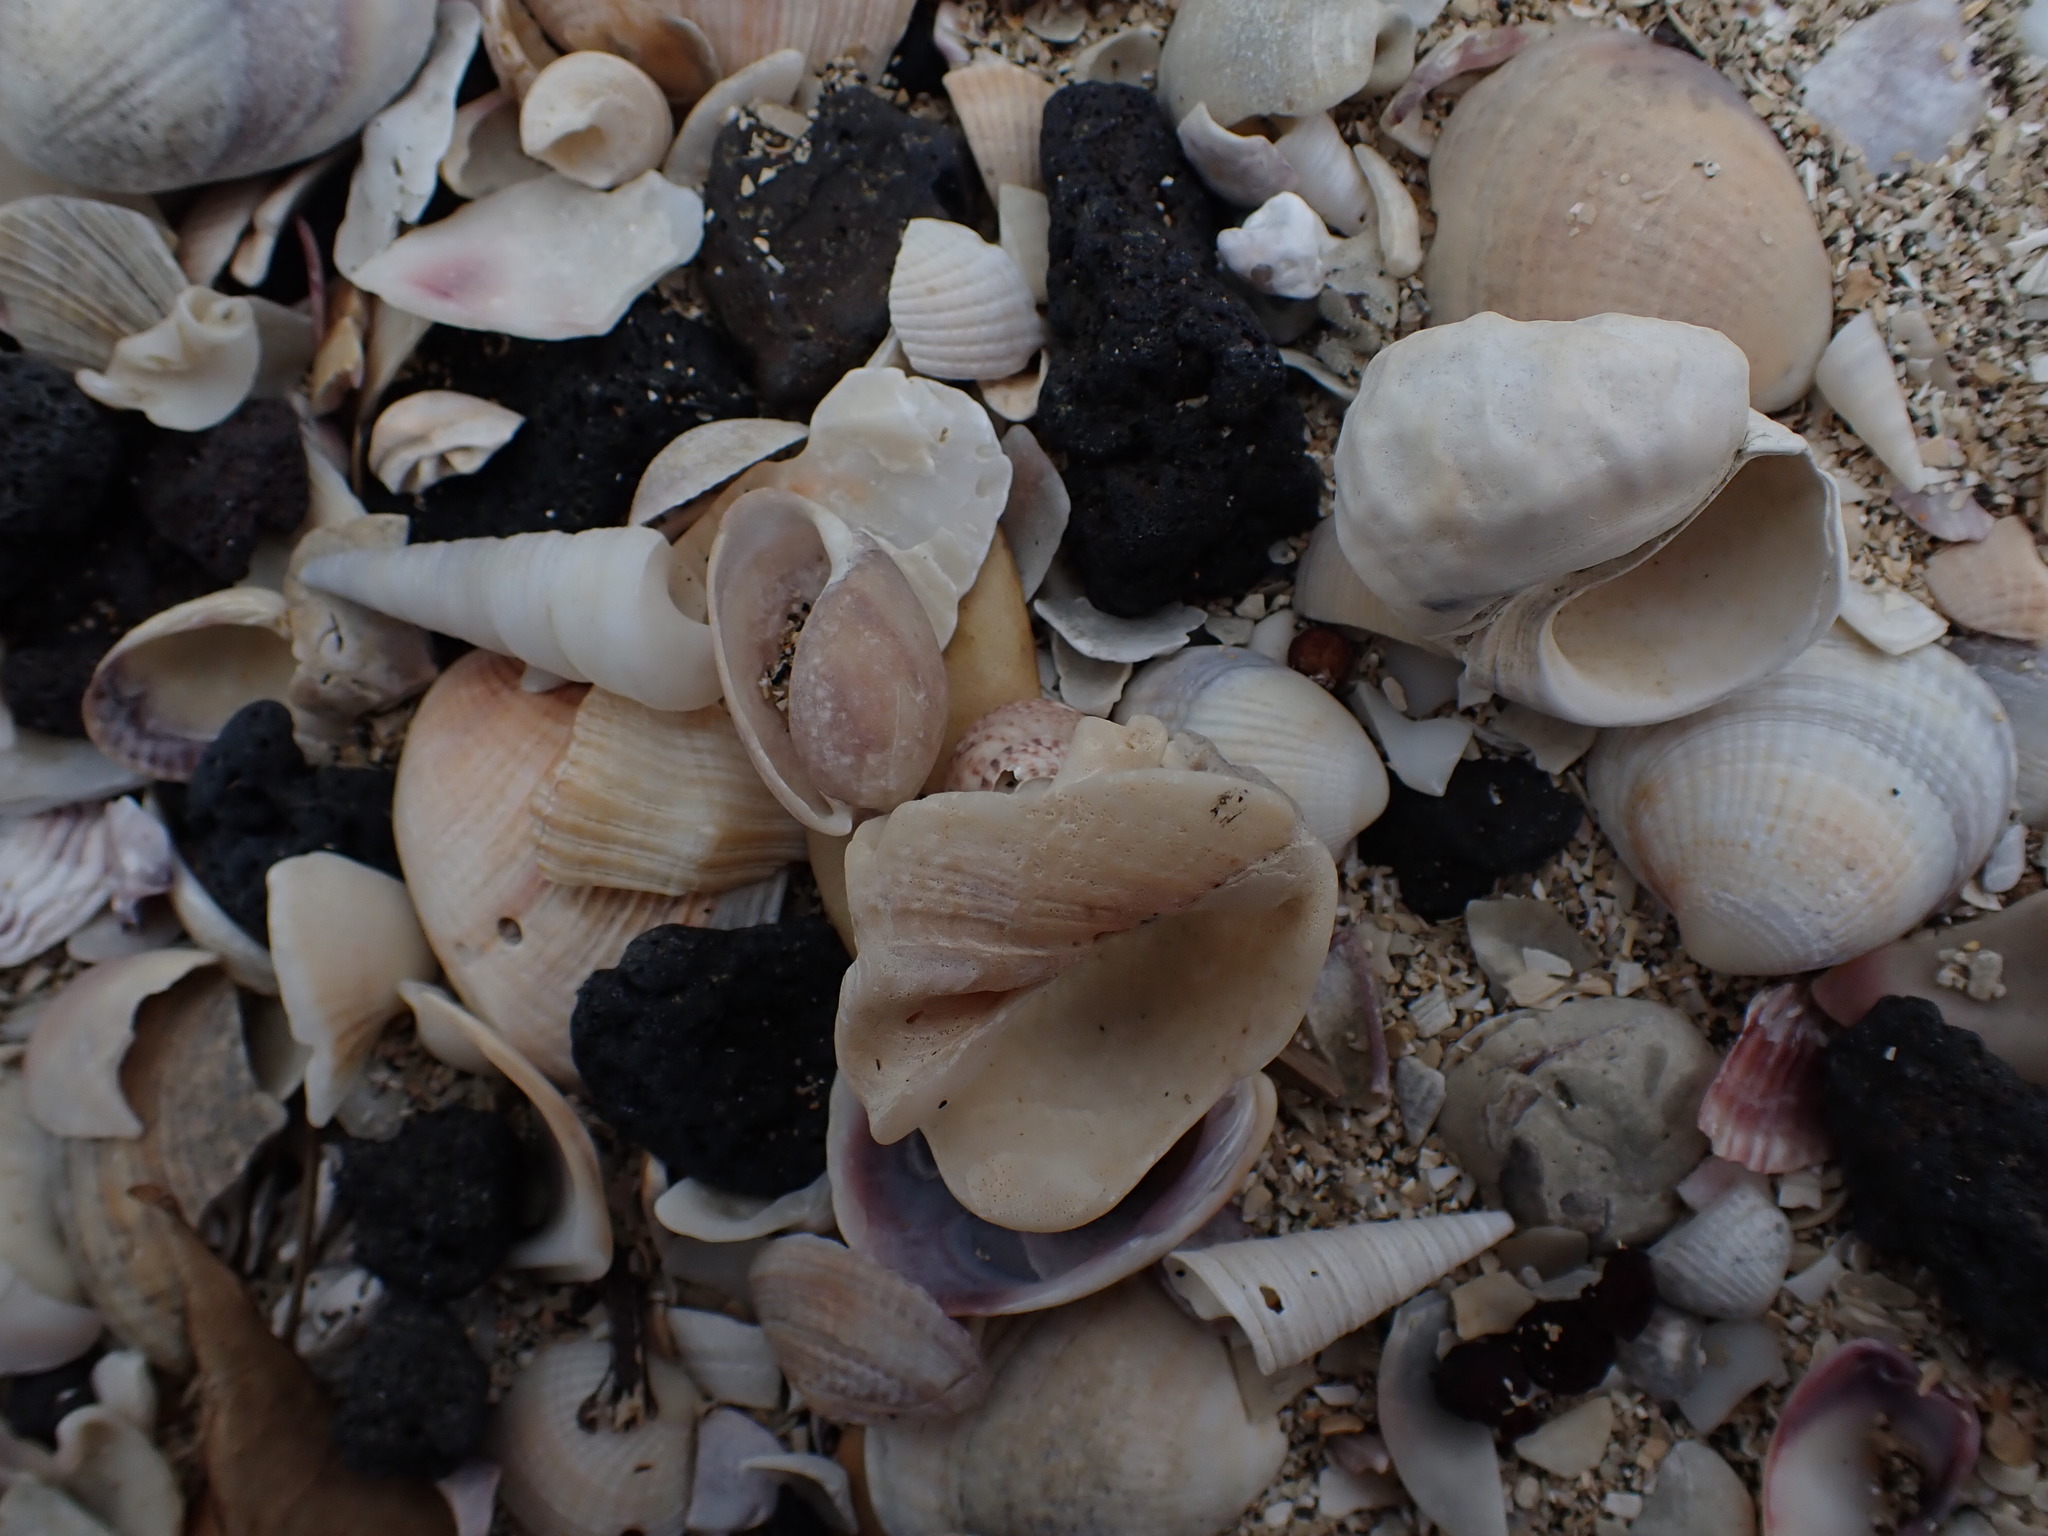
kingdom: Animalia
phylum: Mollusca
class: Gastropoda
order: Neogastropoda
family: Cominellidae
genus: Cominella
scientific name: Cominella adspersa
